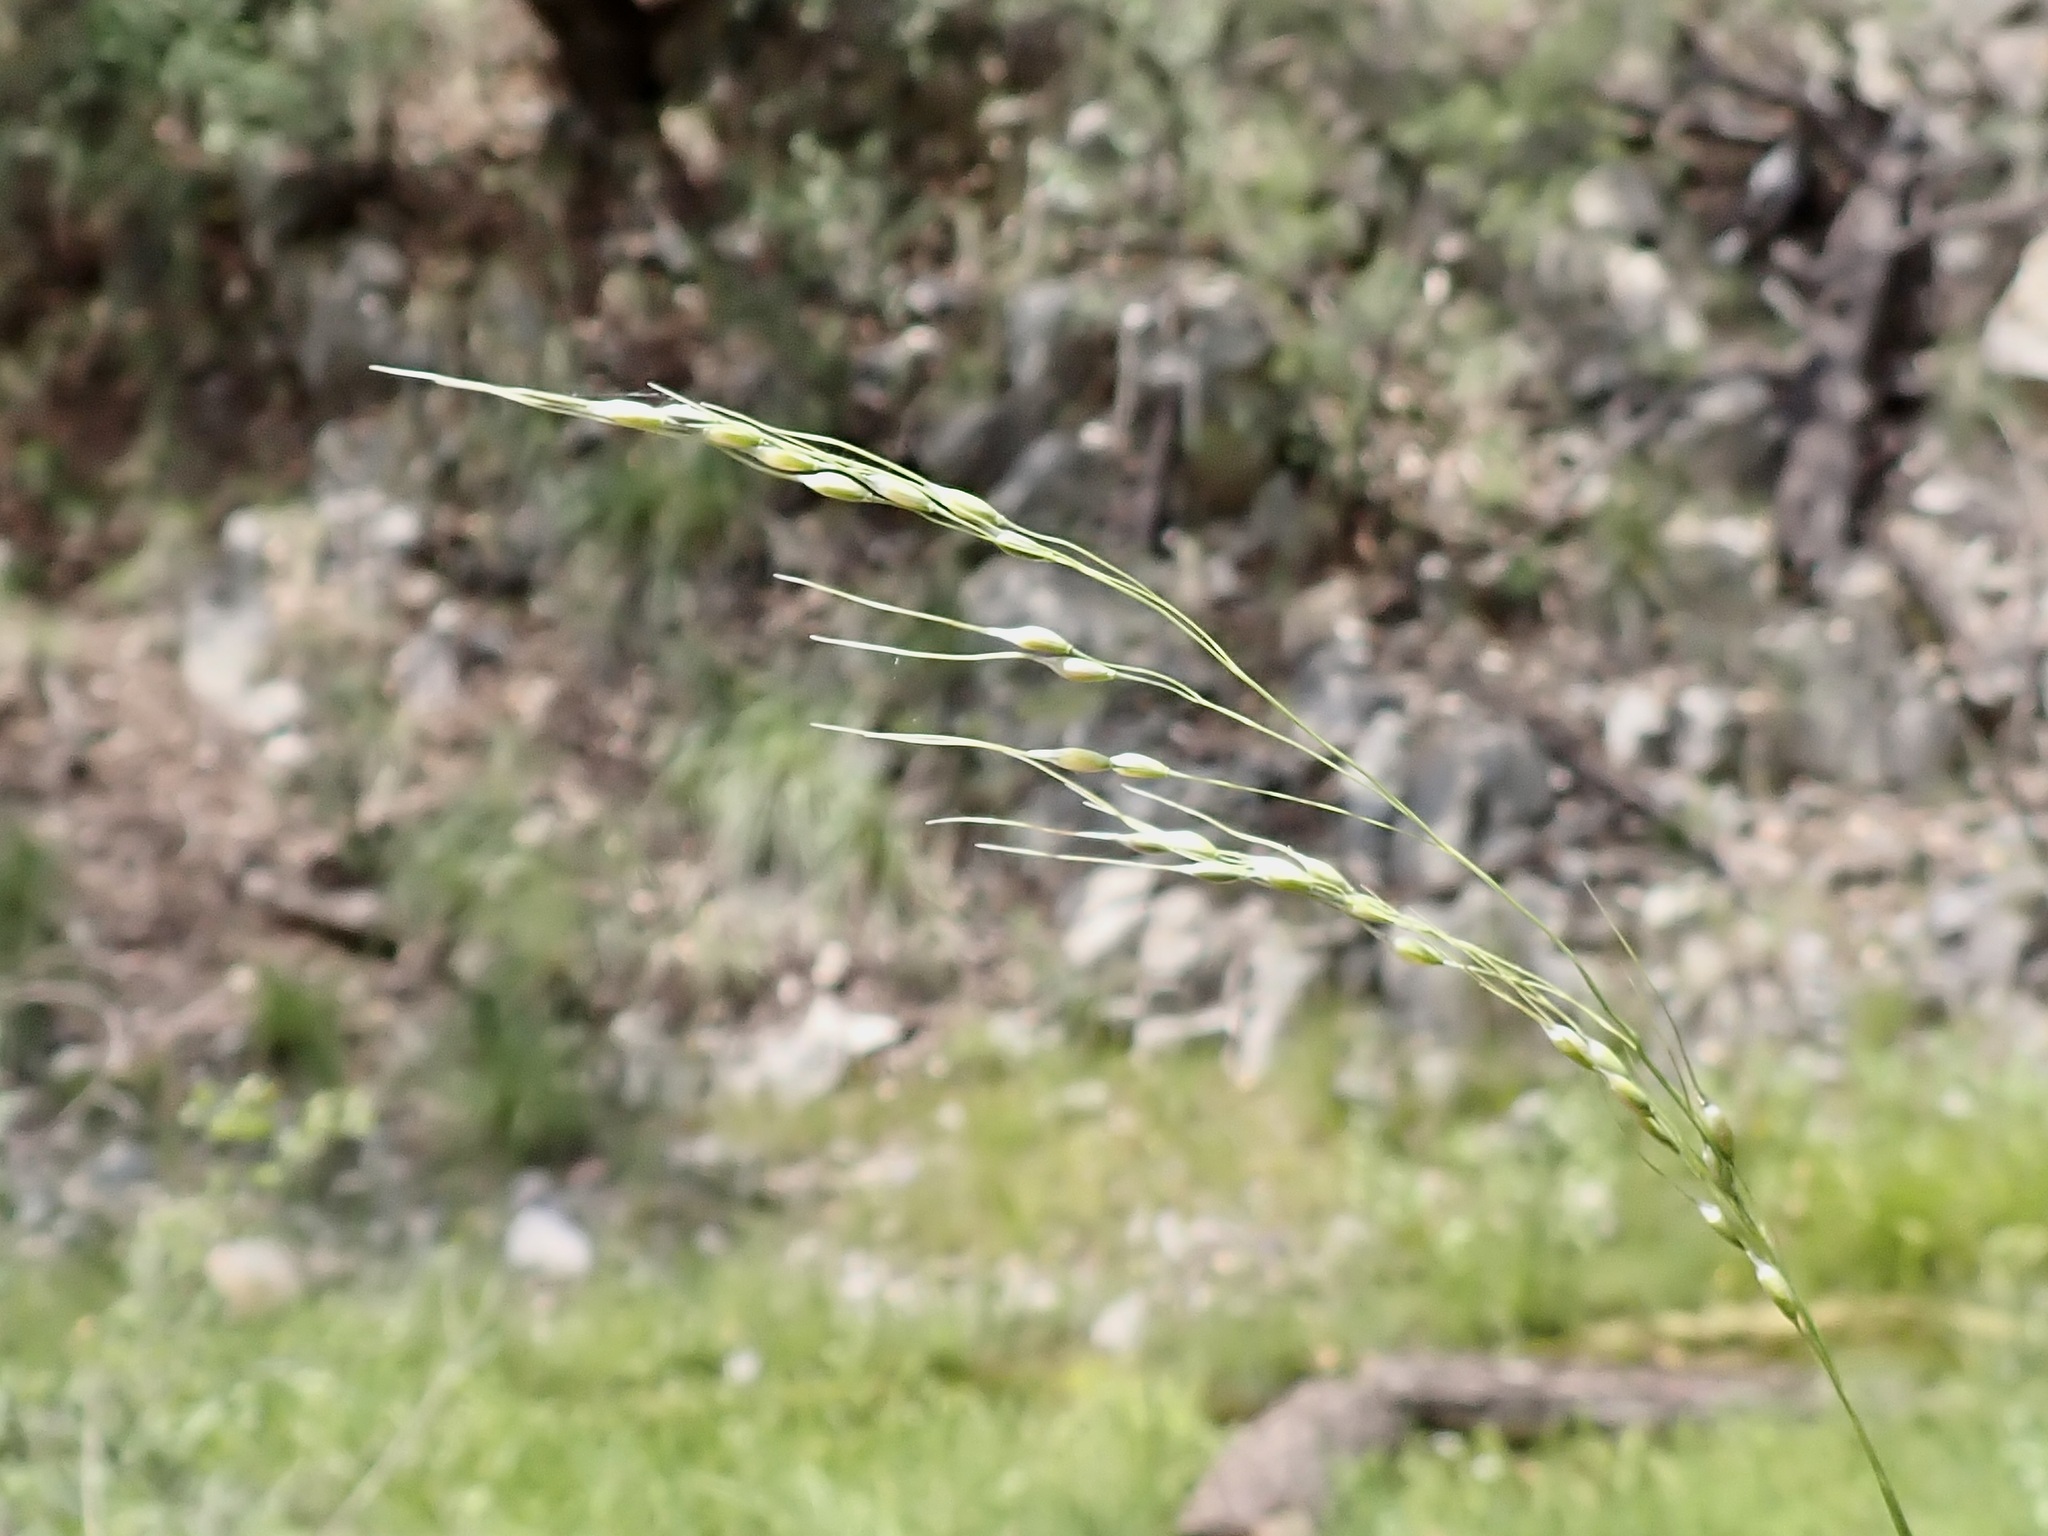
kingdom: Plantae
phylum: Tracheophyta
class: Liliopsida
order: Poales
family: Poaceae
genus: Piptochaetium
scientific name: Piptochaetium fimbriatum
